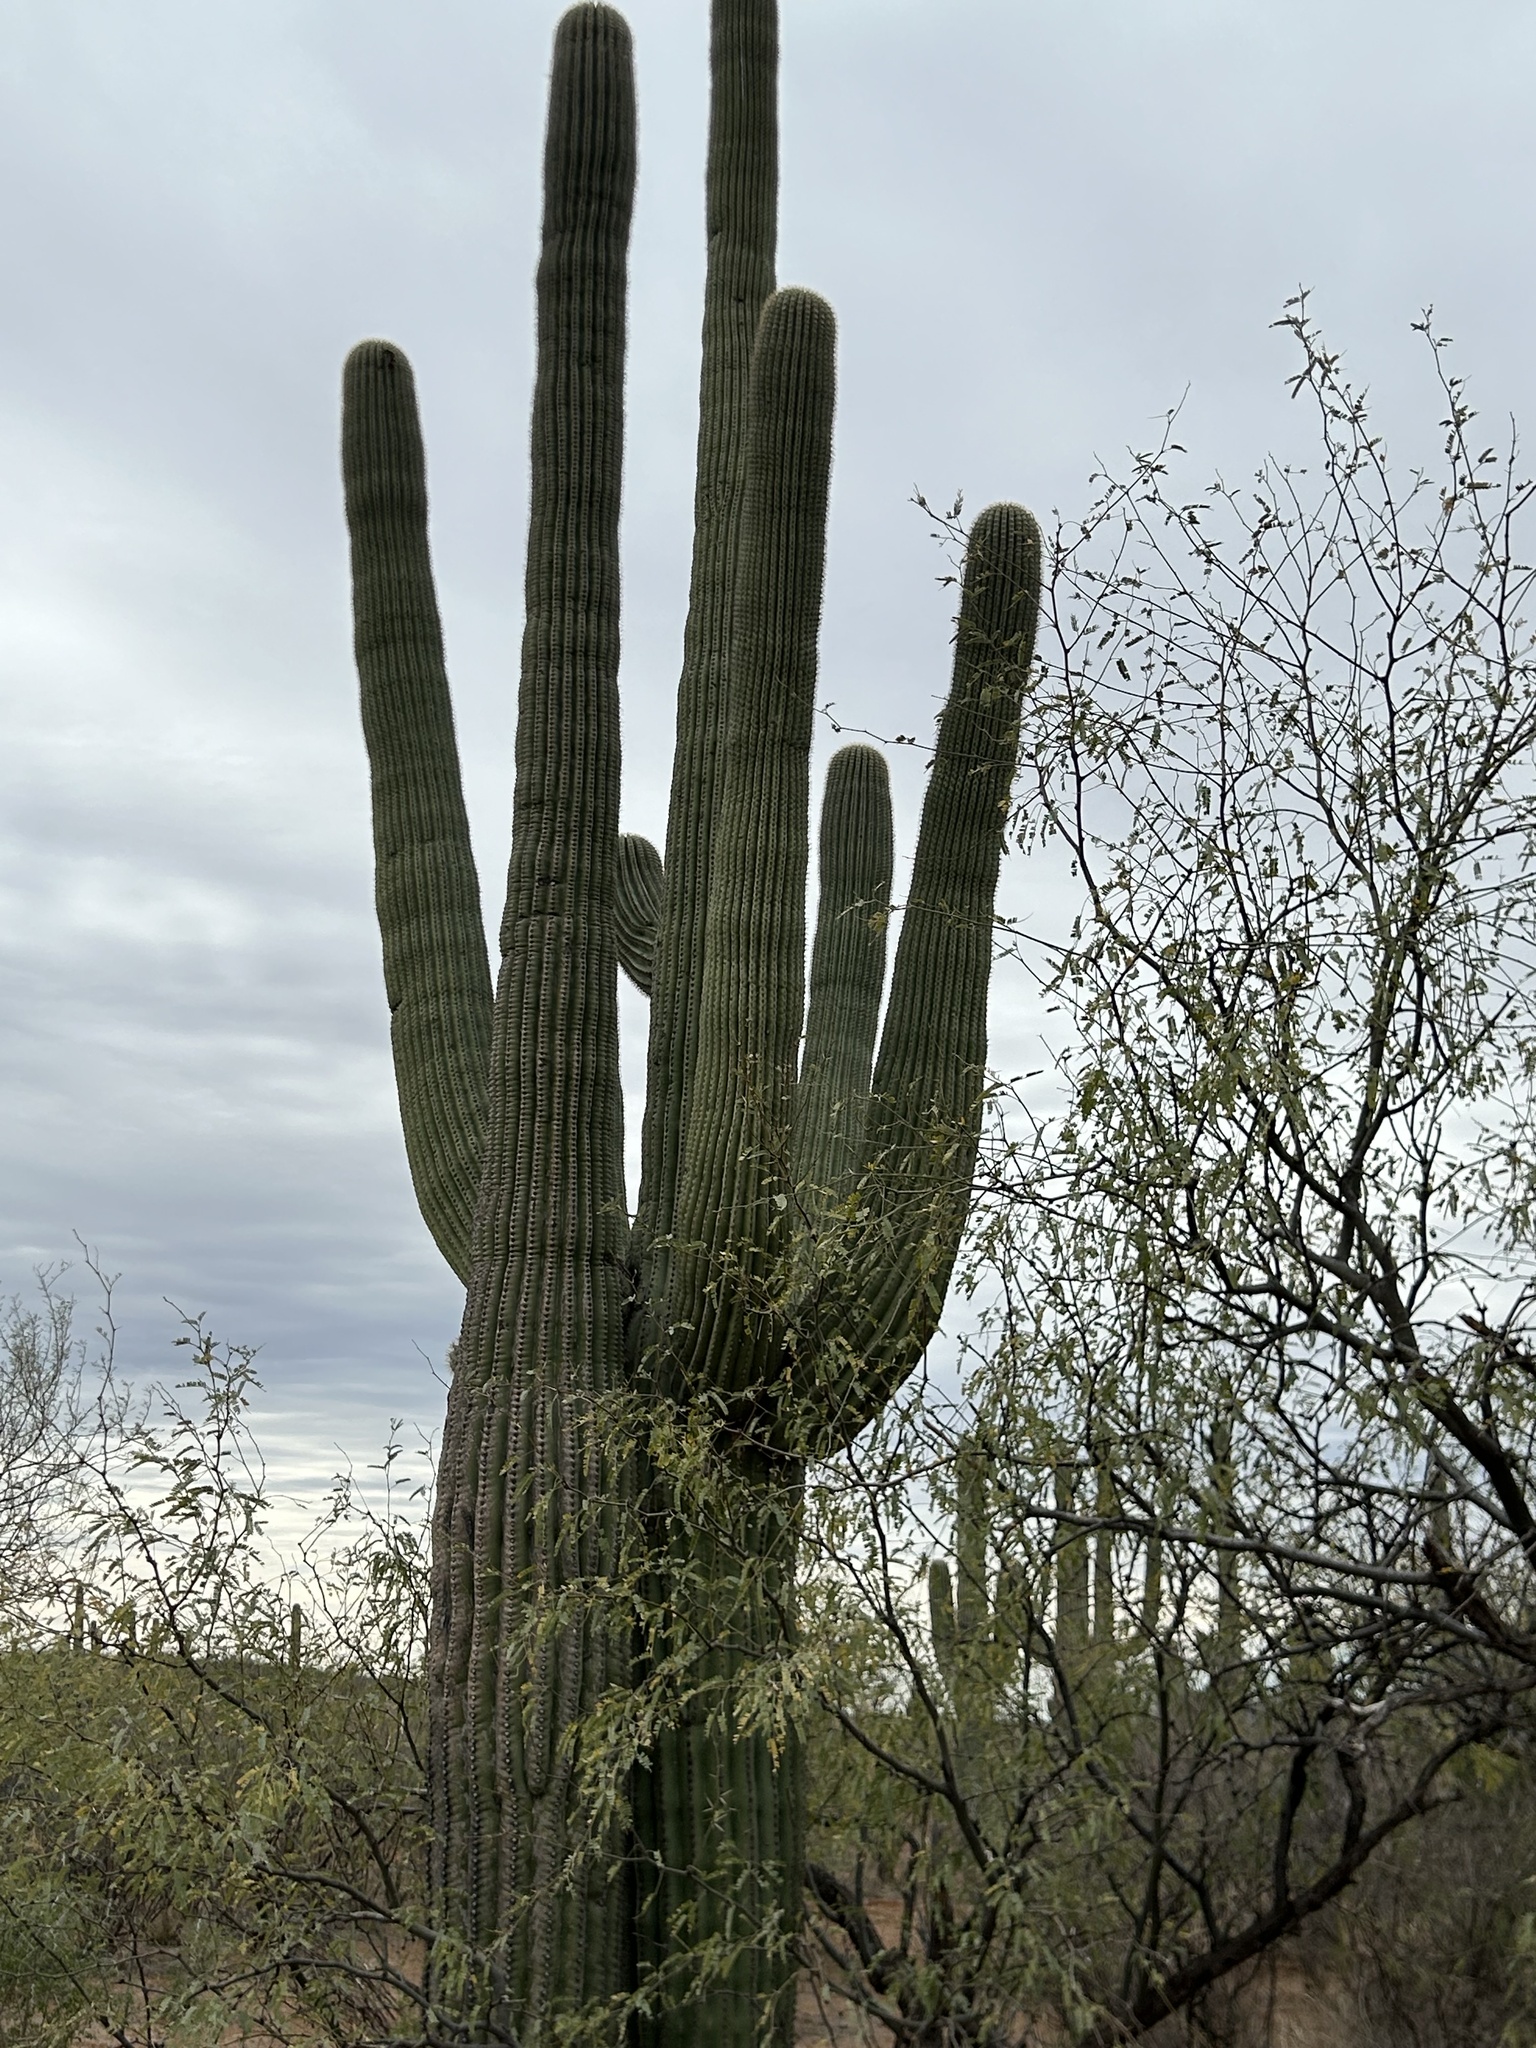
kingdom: Plantae
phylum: Tracheophyta
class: Magnoliopsida
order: Caryophyllales
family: Cactaceae
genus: Carnegiea
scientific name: Carnegiea gigantea
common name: Saguaro
